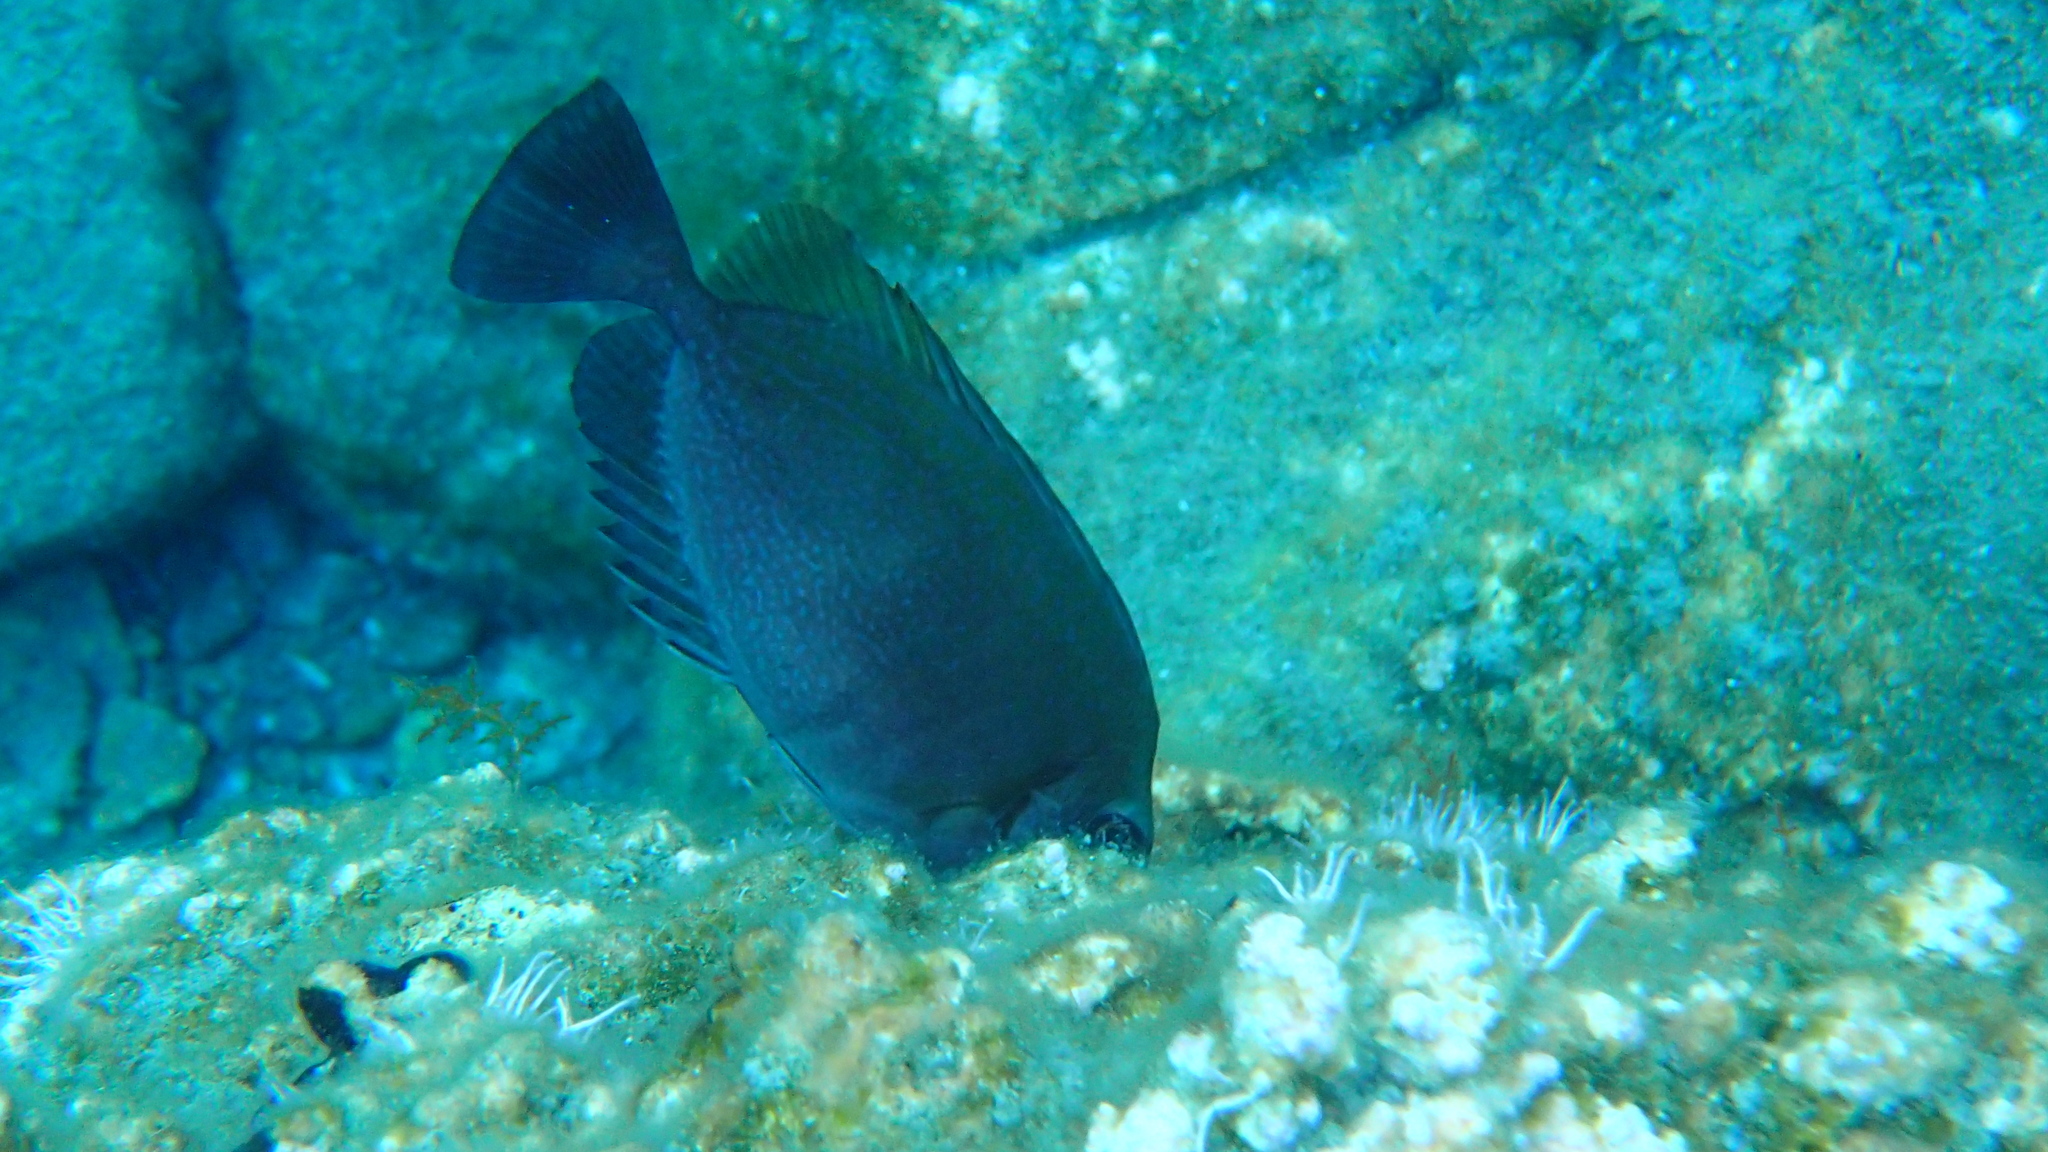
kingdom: Animalia
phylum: Chordata
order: Perciformes
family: Siganidae
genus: Siganus
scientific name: Siganus luridus
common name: Dusky spinefoot
